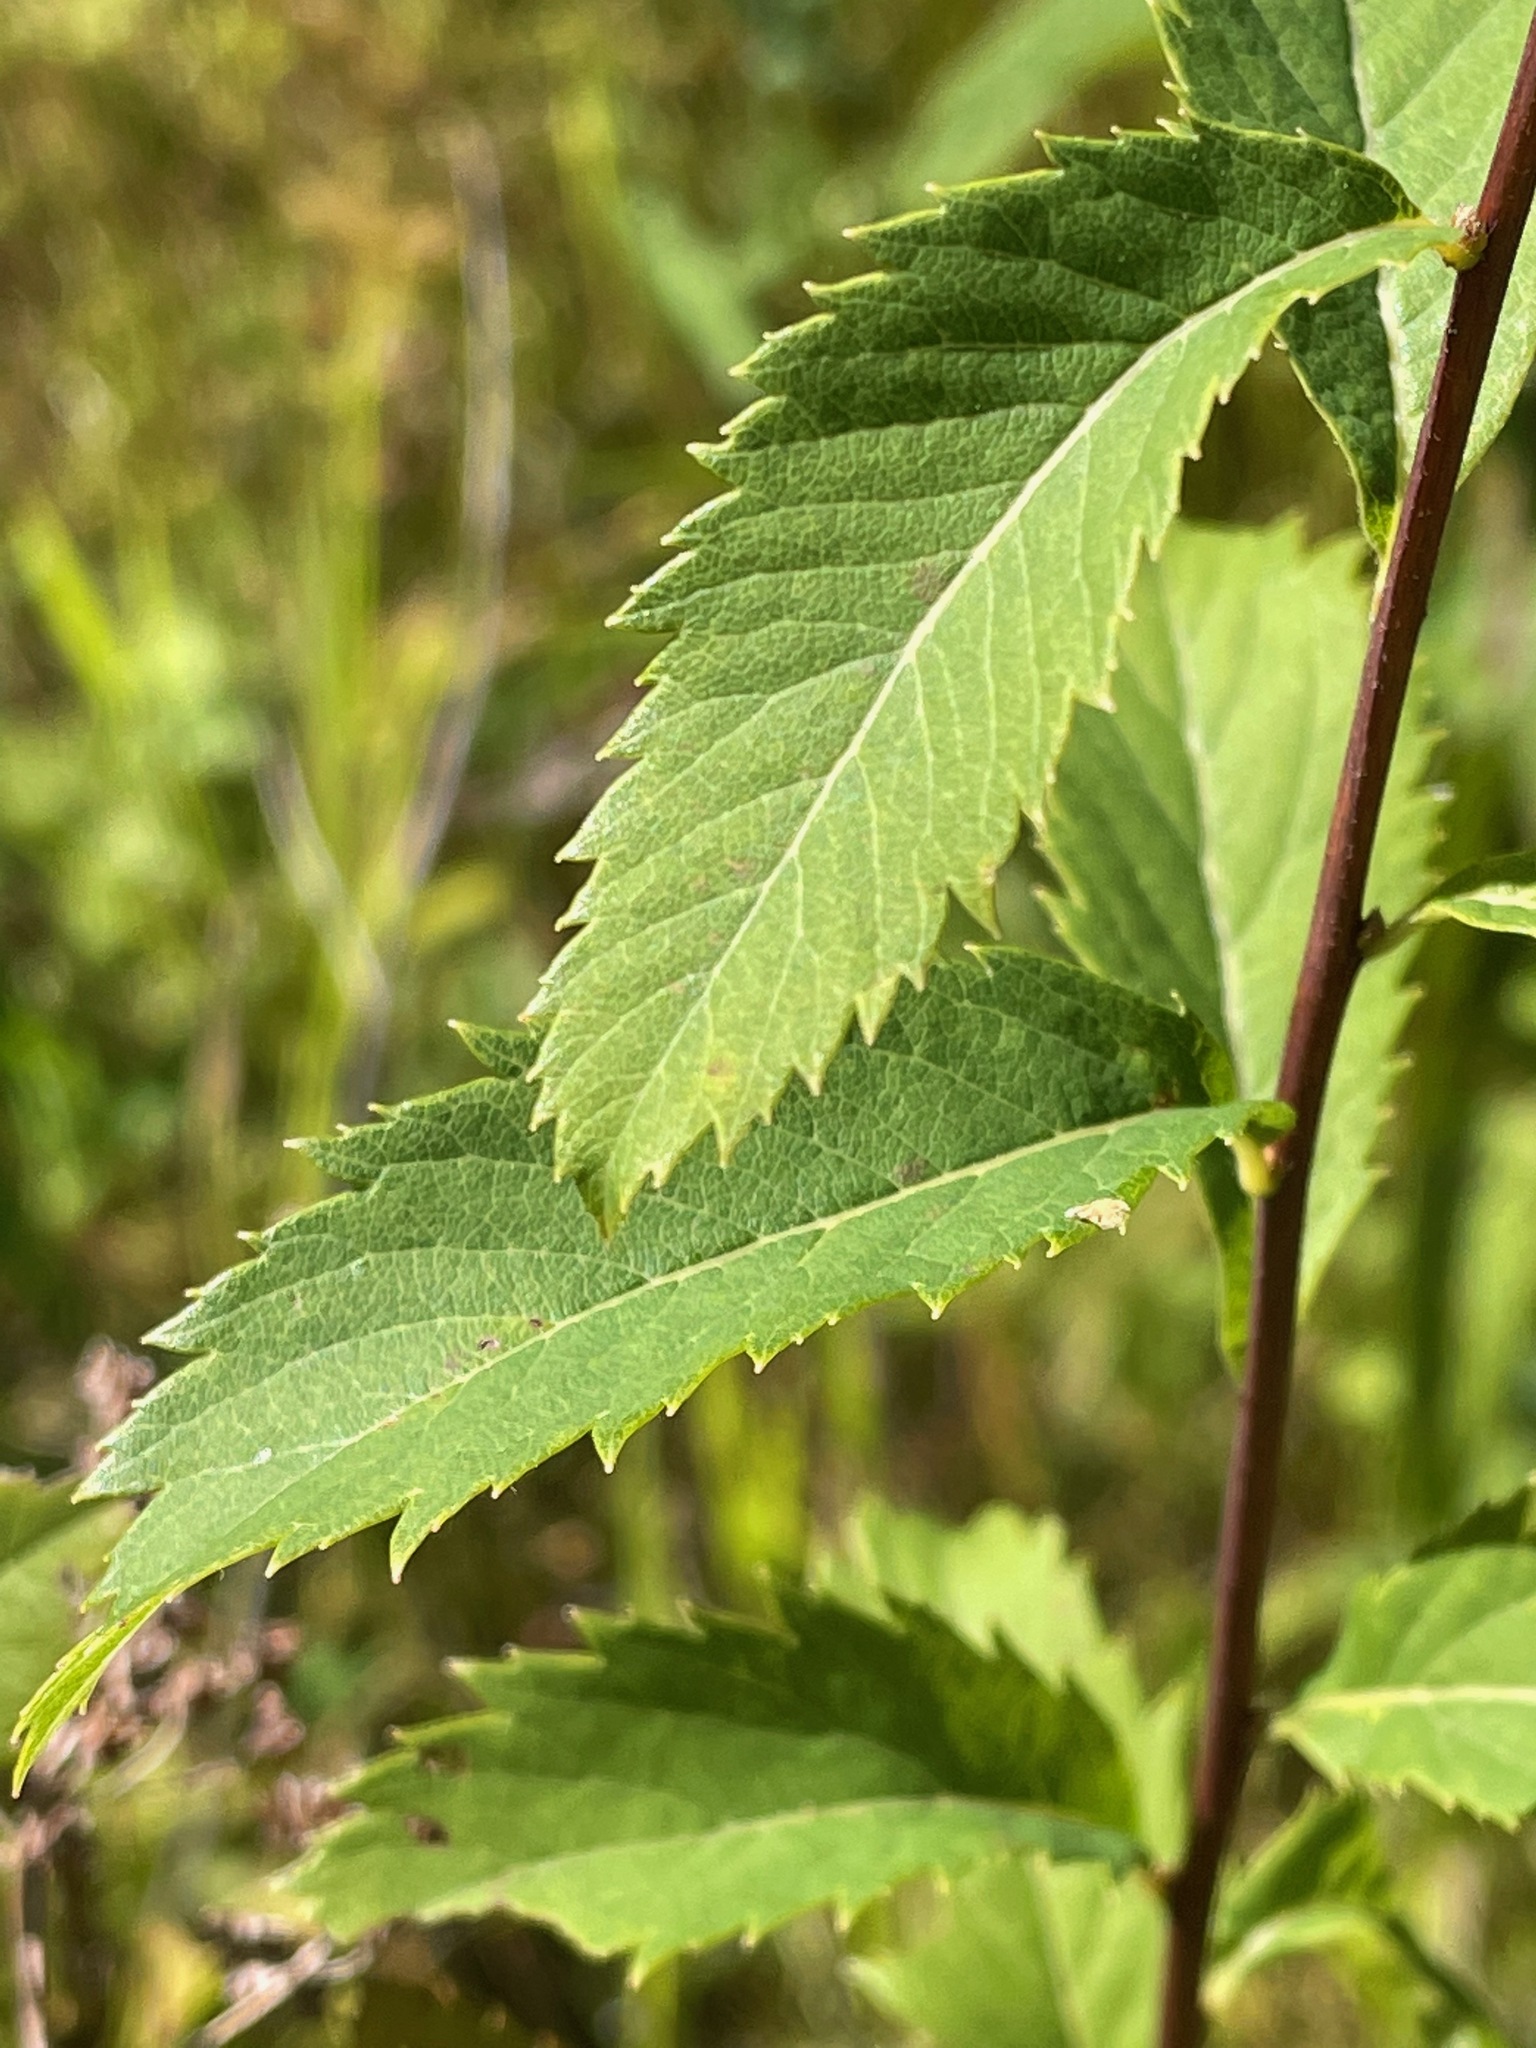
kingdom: Plantae
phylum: Tracheophyta
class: Magnoliopsida
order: Rosales
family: Rosaceae
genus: Spiraea
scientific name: Spiraea alba
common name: Pale bridewort
